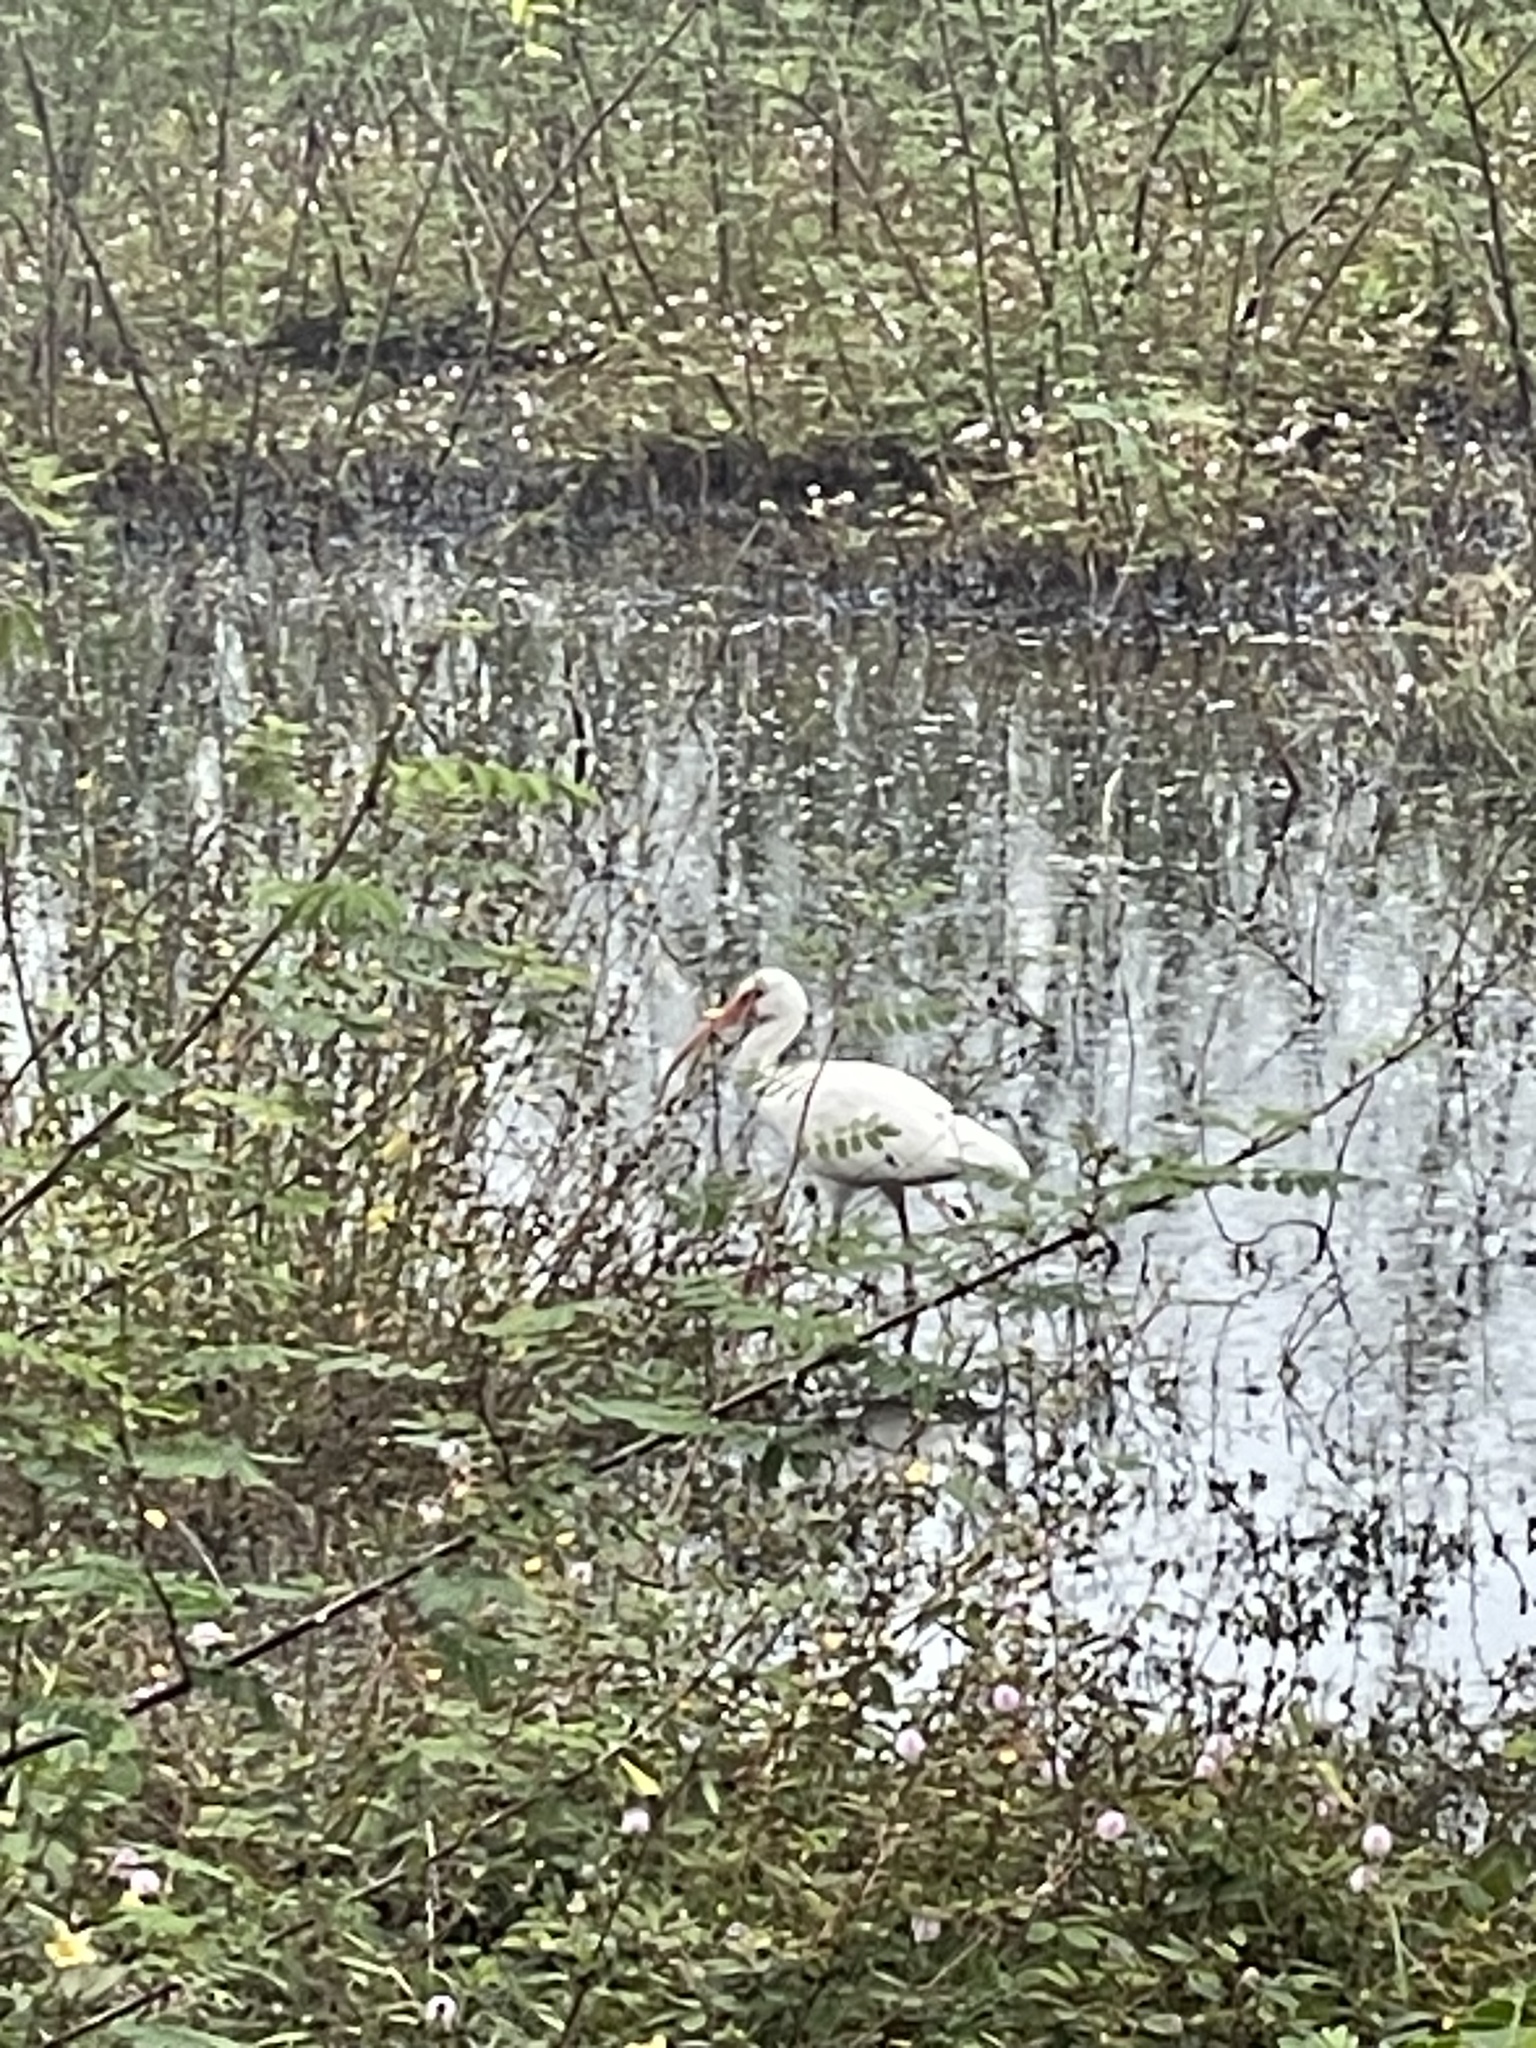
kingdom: Animalia
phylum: Chordata
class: Aves
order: Pelecaniformes
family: Threskiornithidae
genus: Eudocimus
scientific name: Eudocimus albus
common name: White ibis
